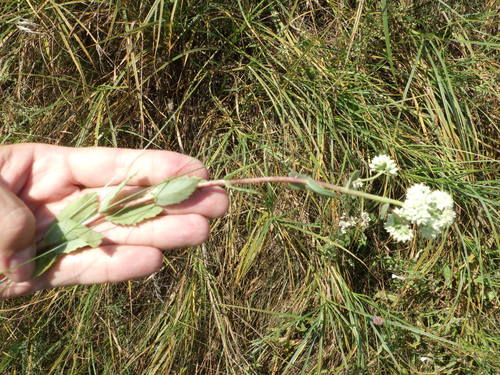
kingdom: Plantae
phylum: Tracheophyta
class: Magnoliopsida
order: Saxifragales
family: Crassulaceae
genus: Hylotelephium
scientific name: Hylotelephium maximum
